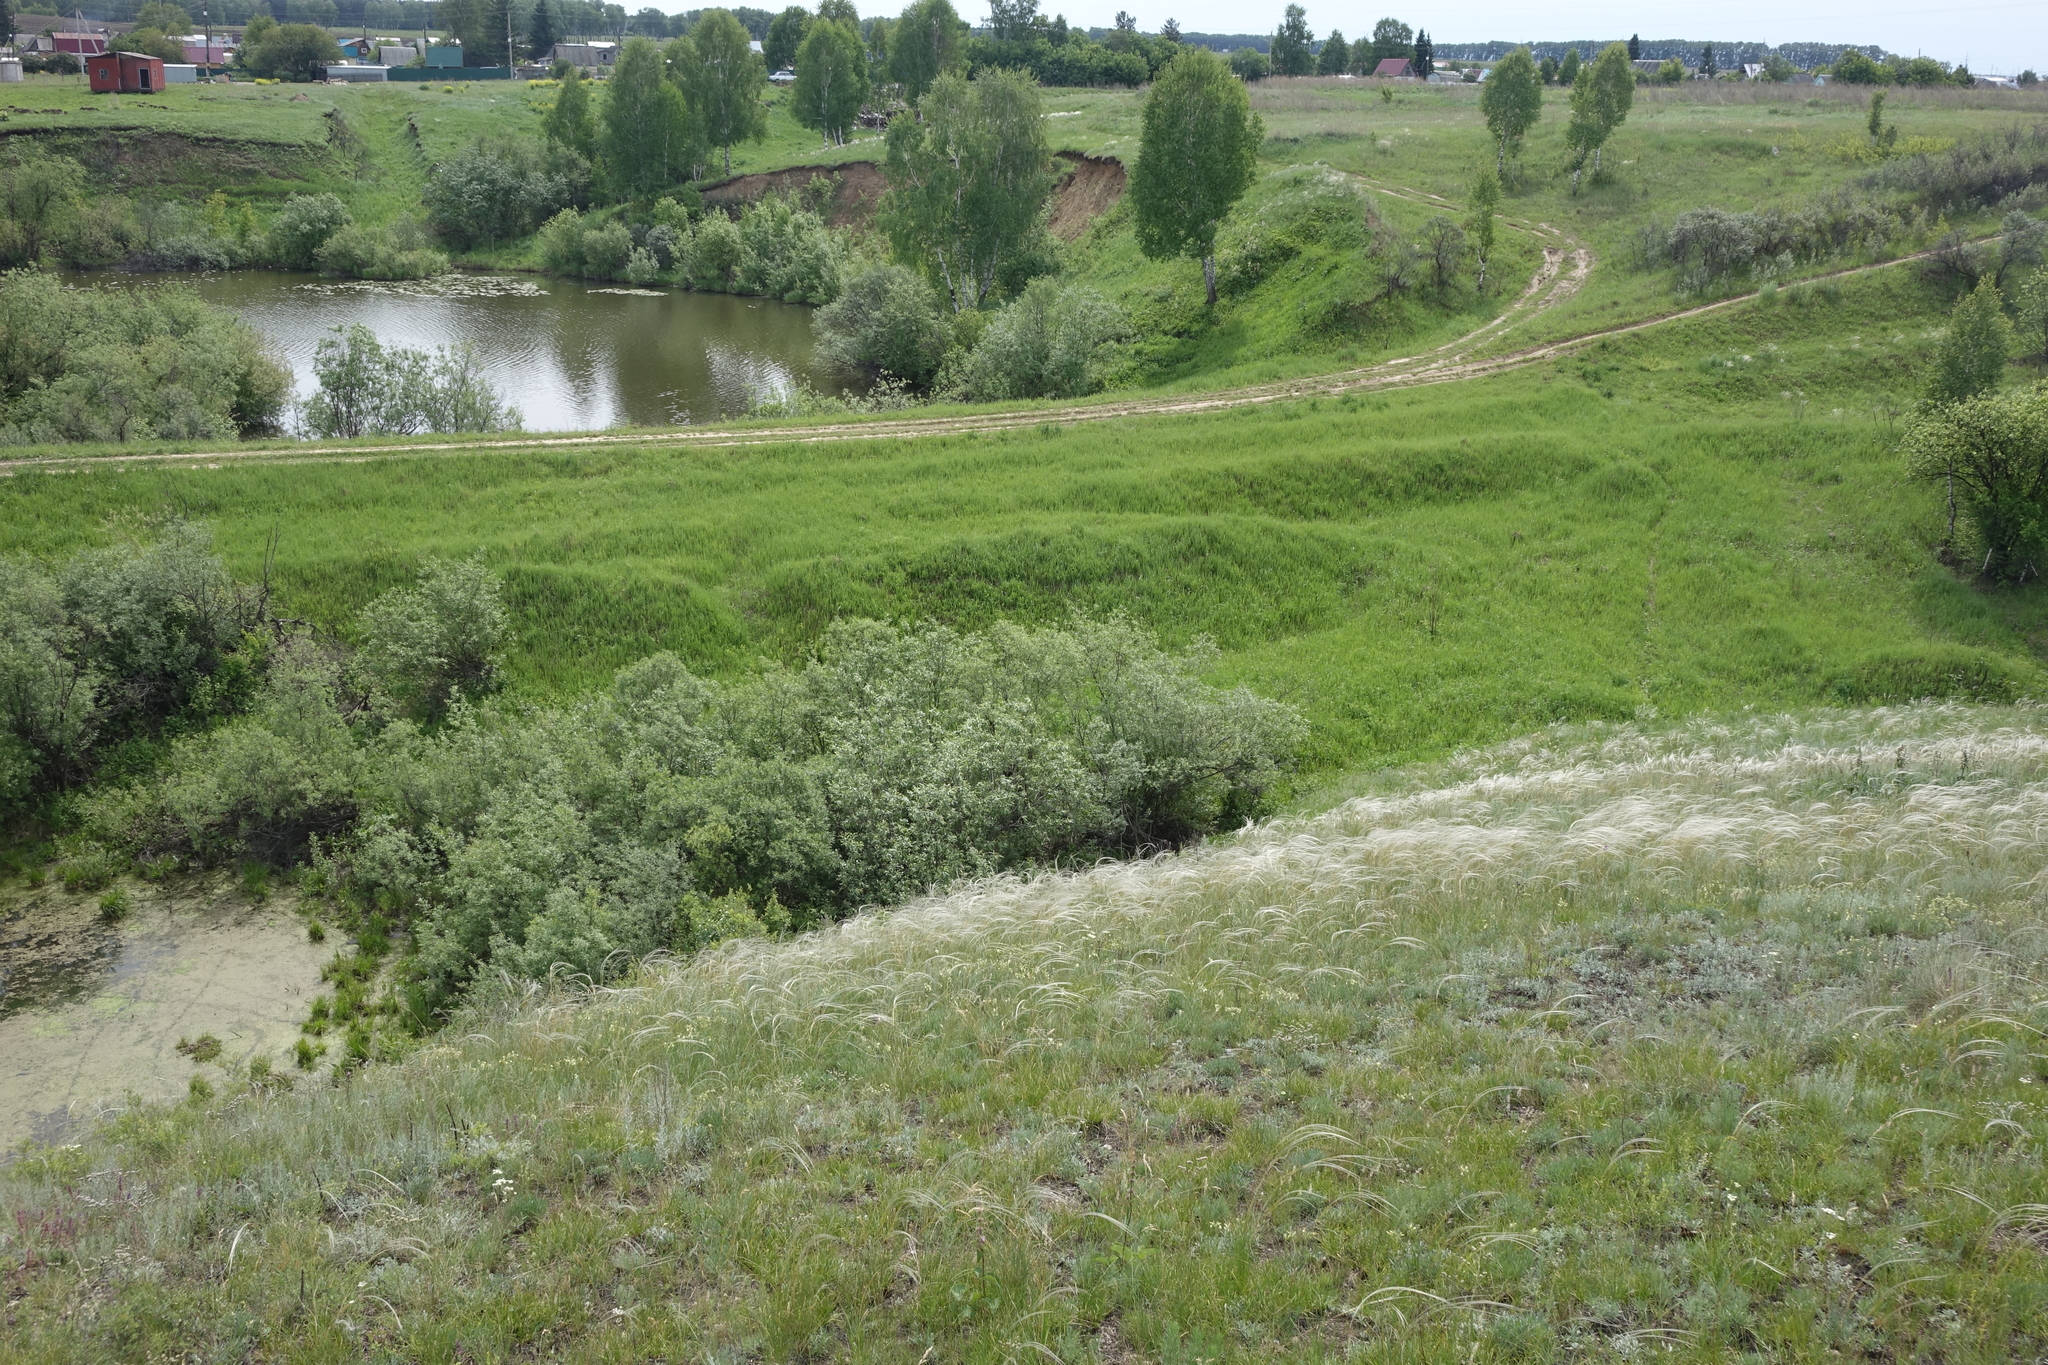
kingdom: Plantae
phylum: Tracheophyta
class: Liliopsida
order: Poales
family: Poaceae
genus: Stipa
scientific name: Stipa pennata
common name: European feather grass
